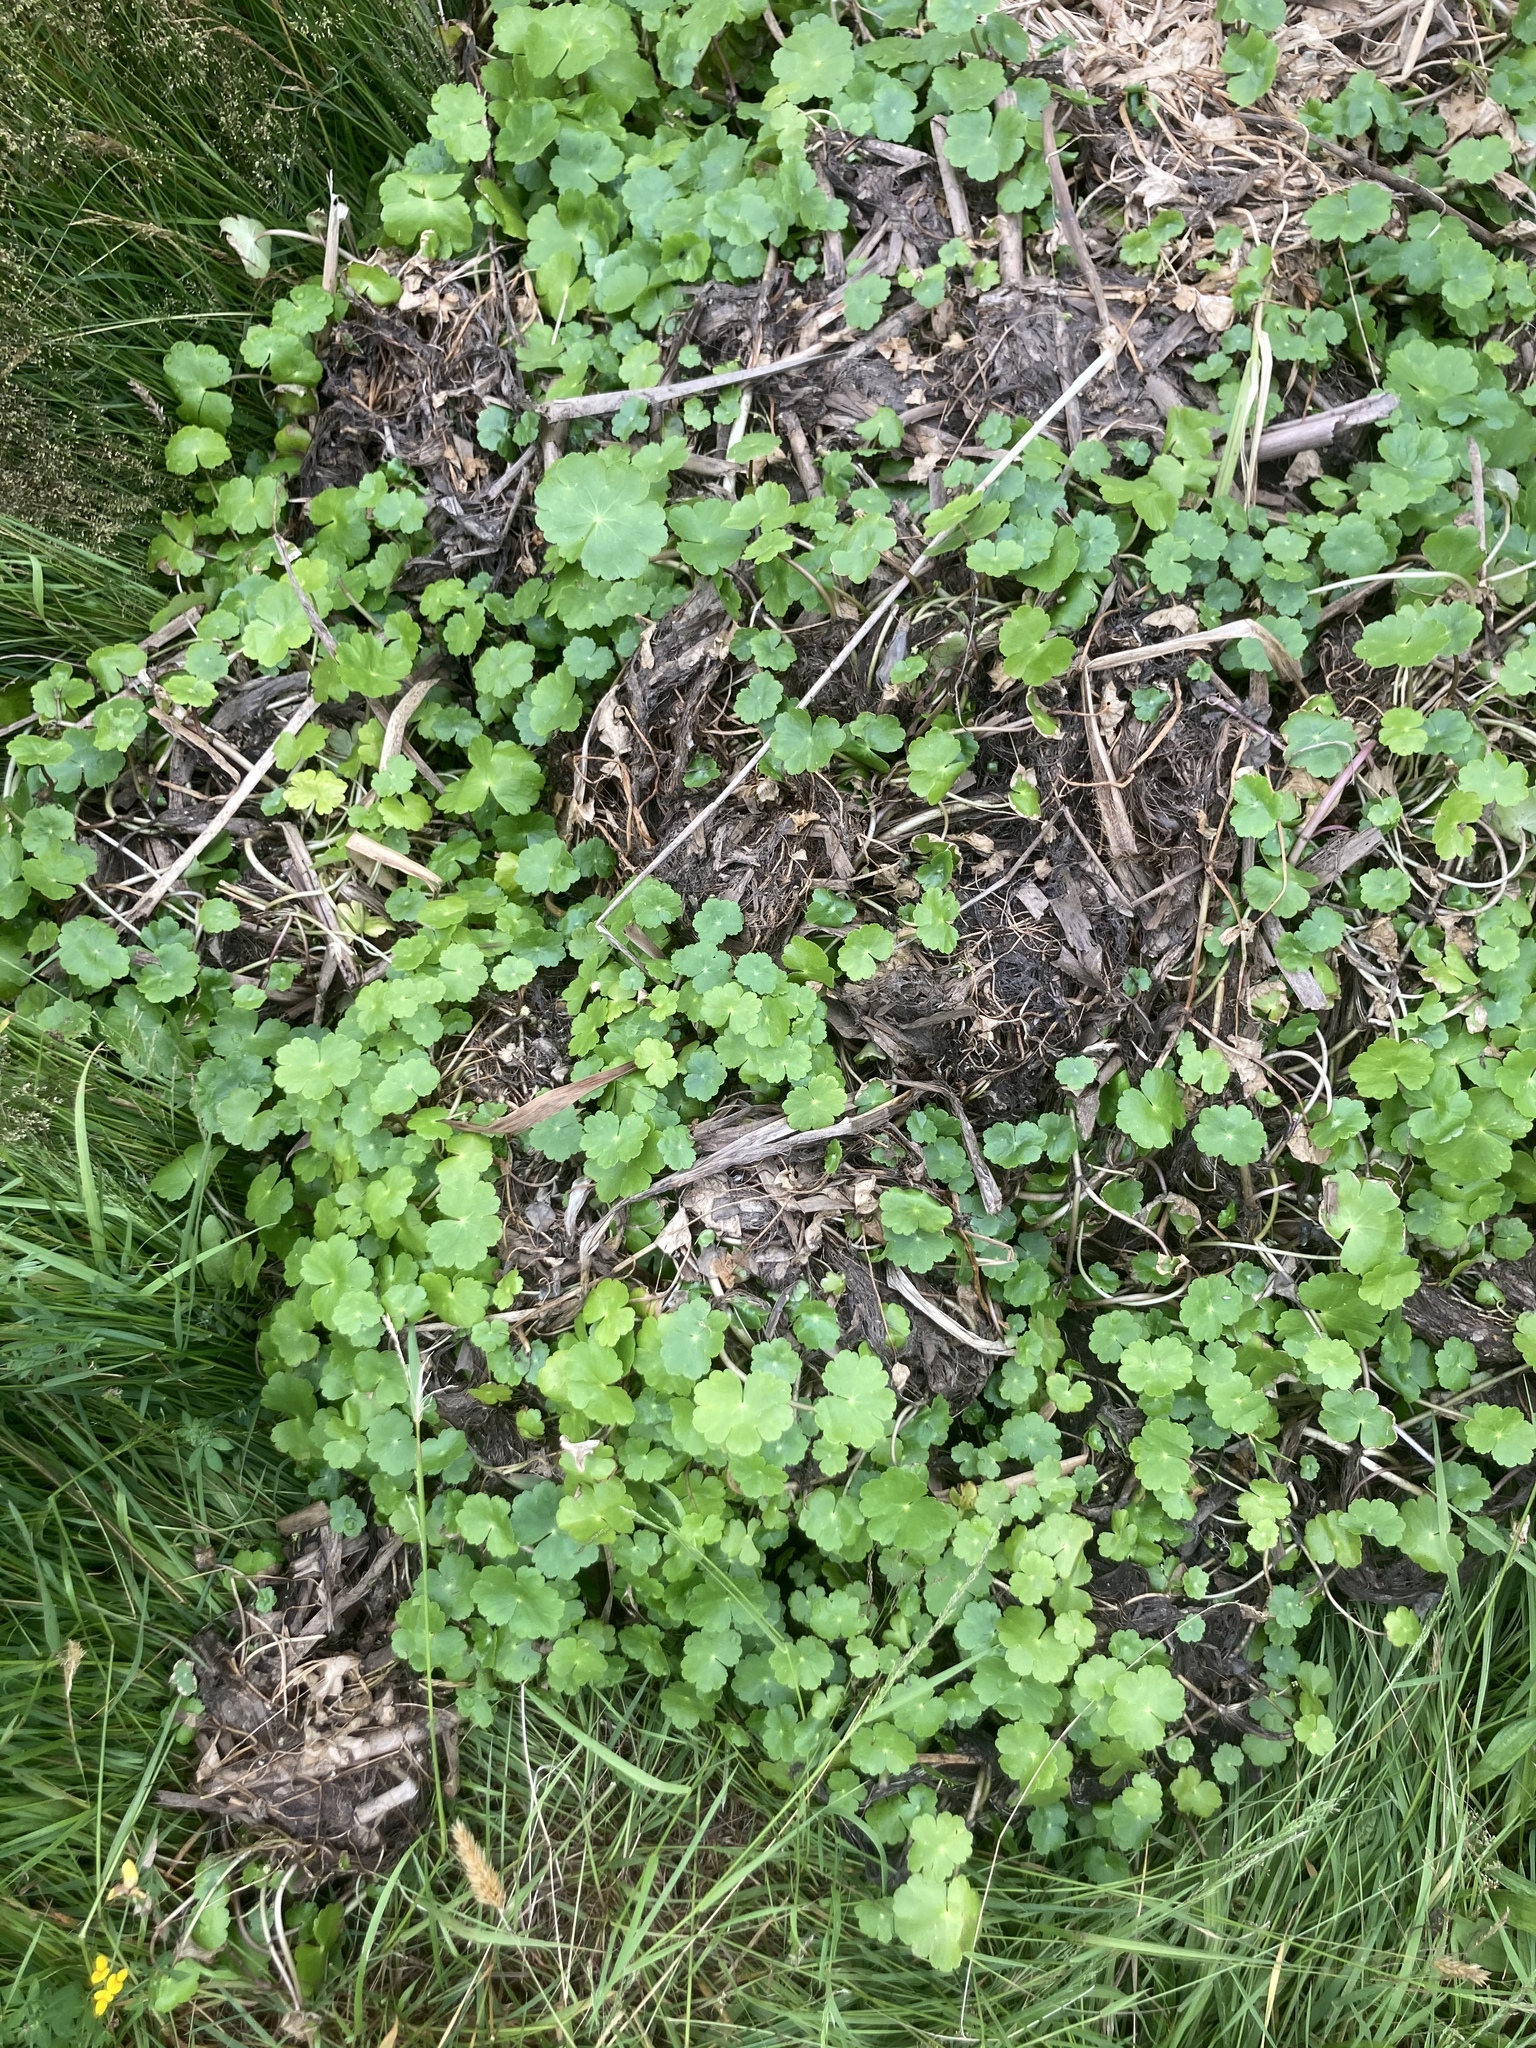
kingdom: Plantae
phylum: Tracheophyta
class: Magnoliopsida
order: Apiales
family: Araliaceae
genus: Hydrocotyle
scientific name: Hydrocotyle ranunculoides
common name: Floating pennywort
